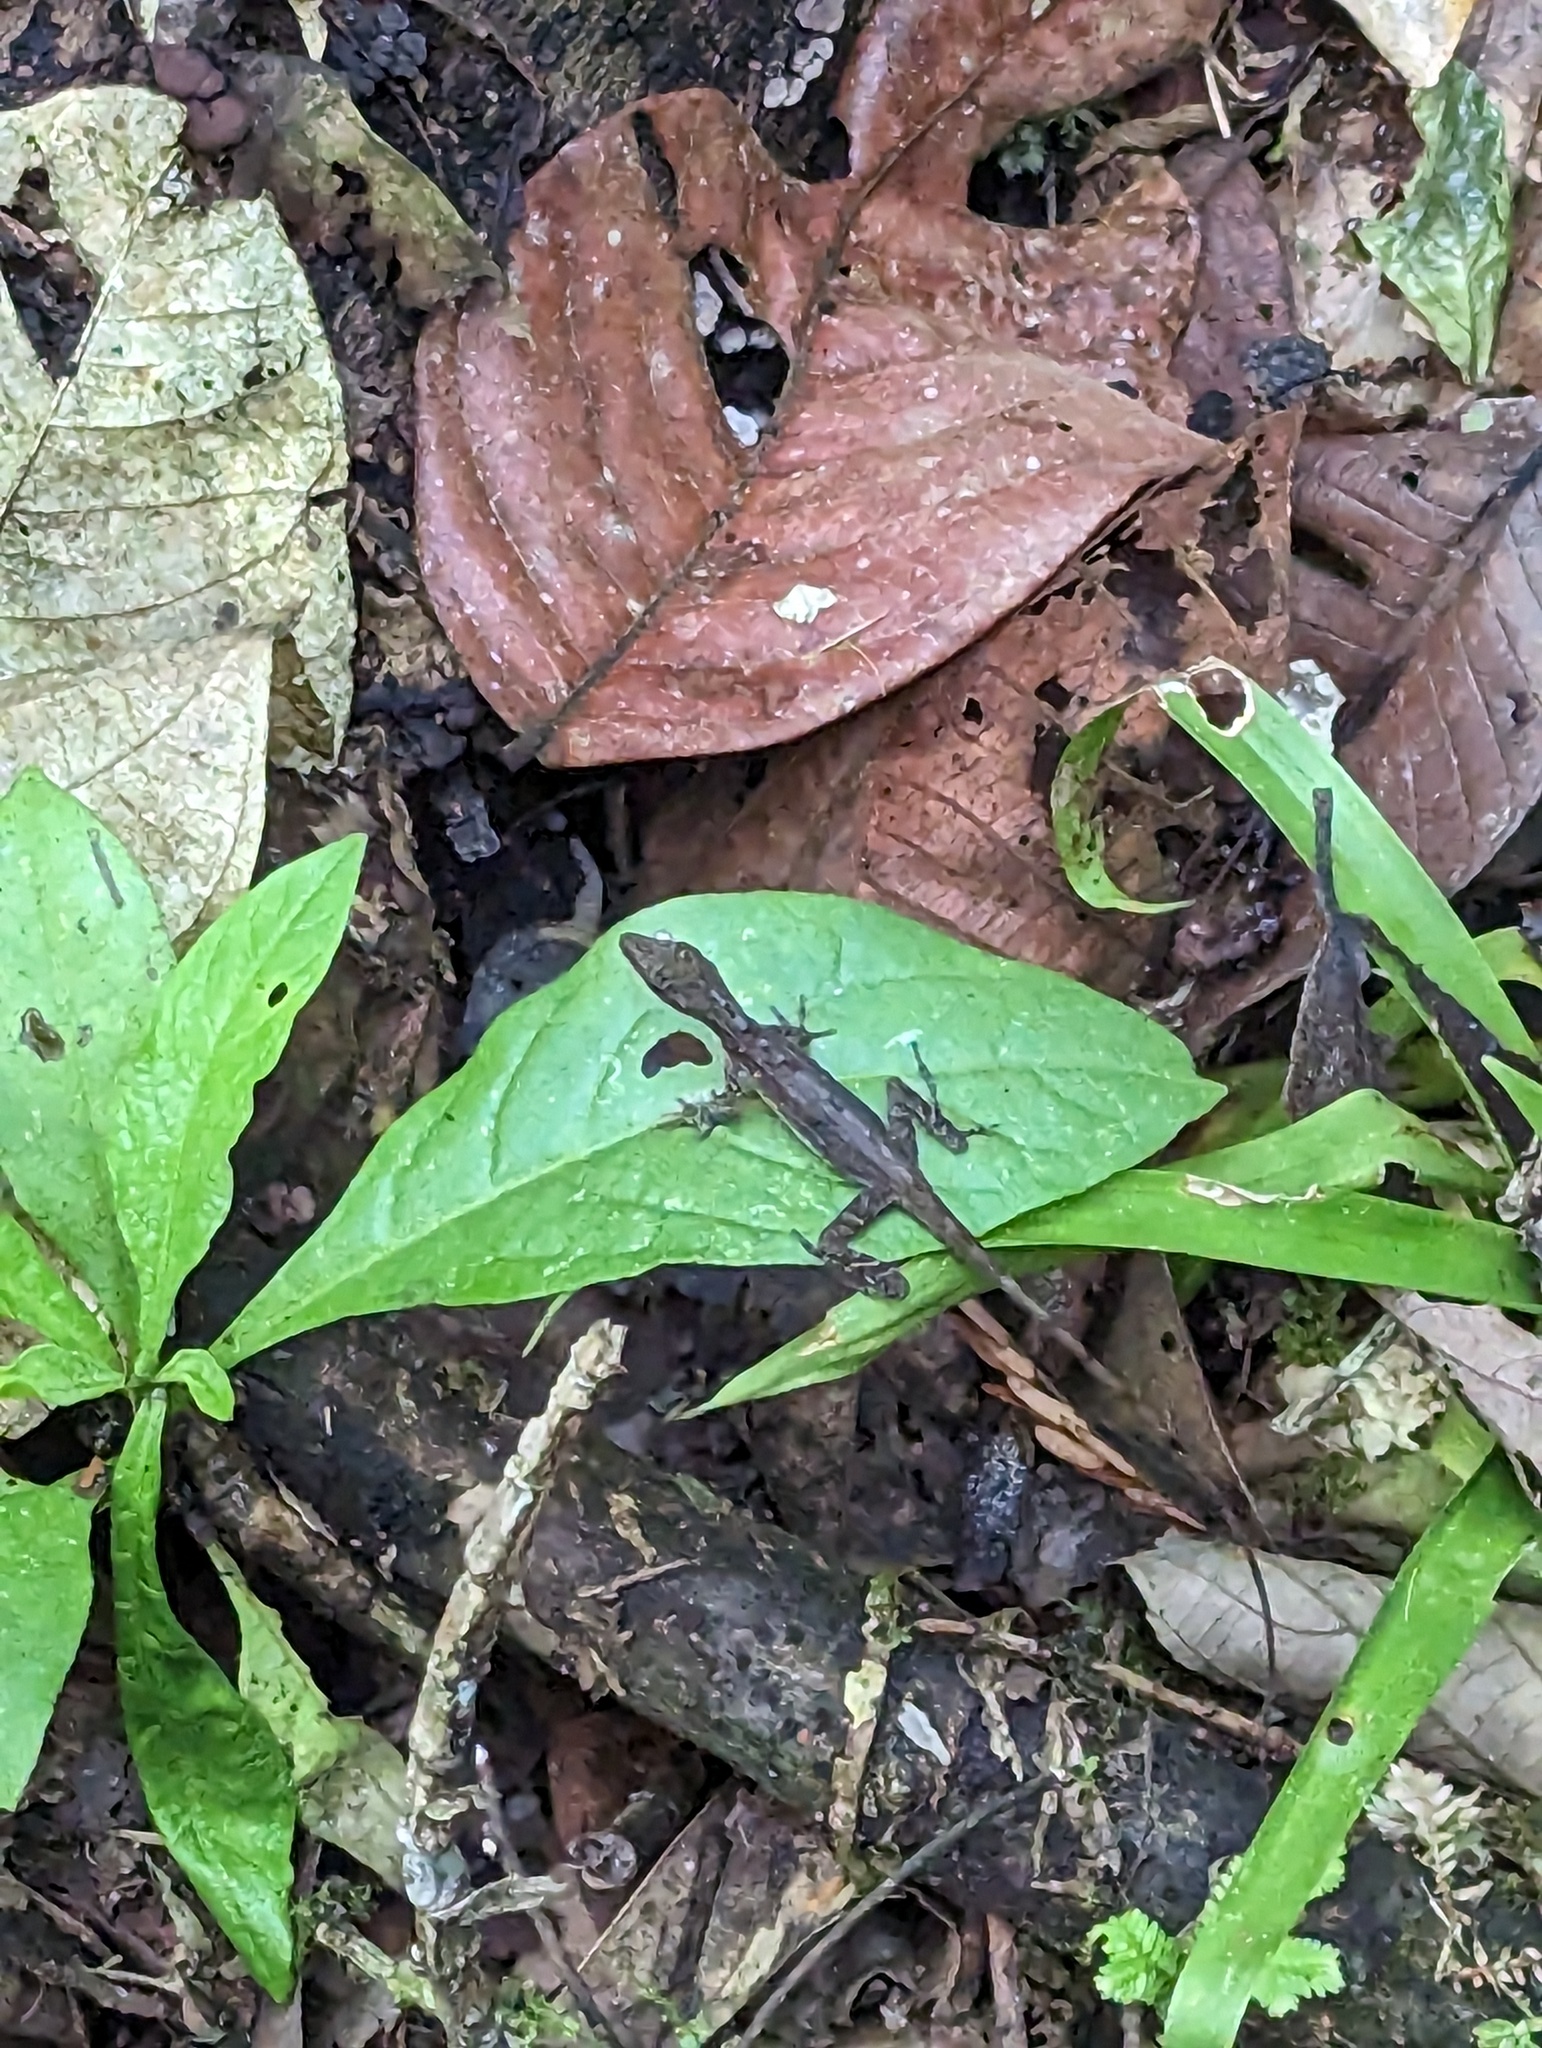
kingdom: Animalia
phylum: Chordata
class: Squamata
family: Dactyloidae
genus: Anolis
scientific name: Anolis limifrons
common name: Border anole
